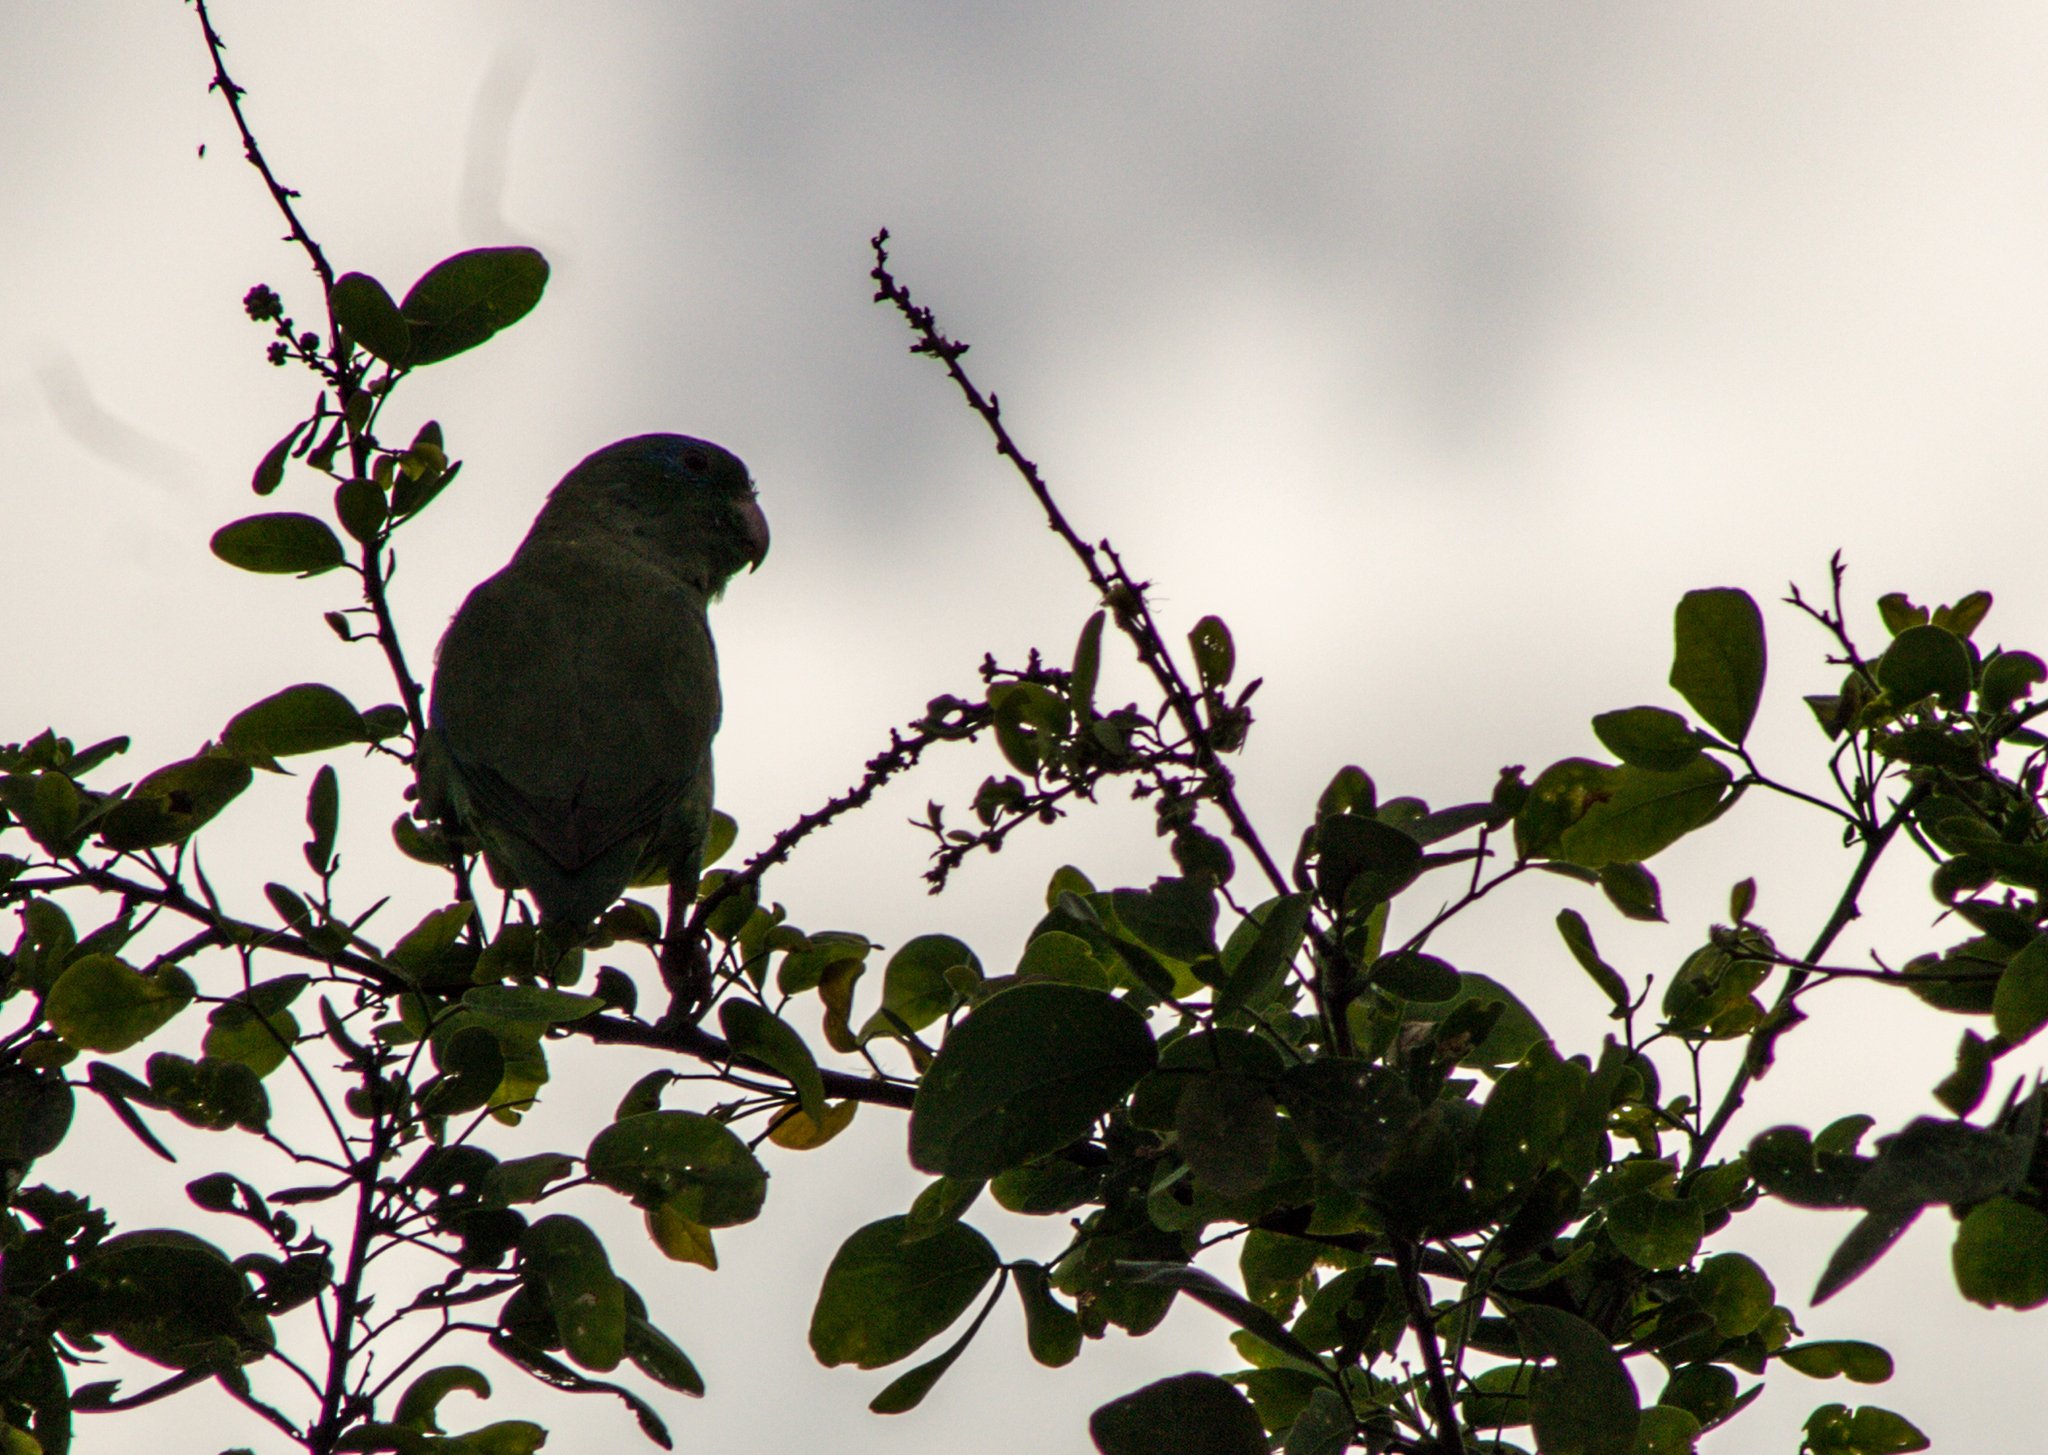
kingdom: Animalia
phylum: Chordata
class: Aves
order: Psittaciformes
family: Psittacidae
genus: Forpus
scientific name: Forpus conspicillatus
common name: Spectacled parrotlet
